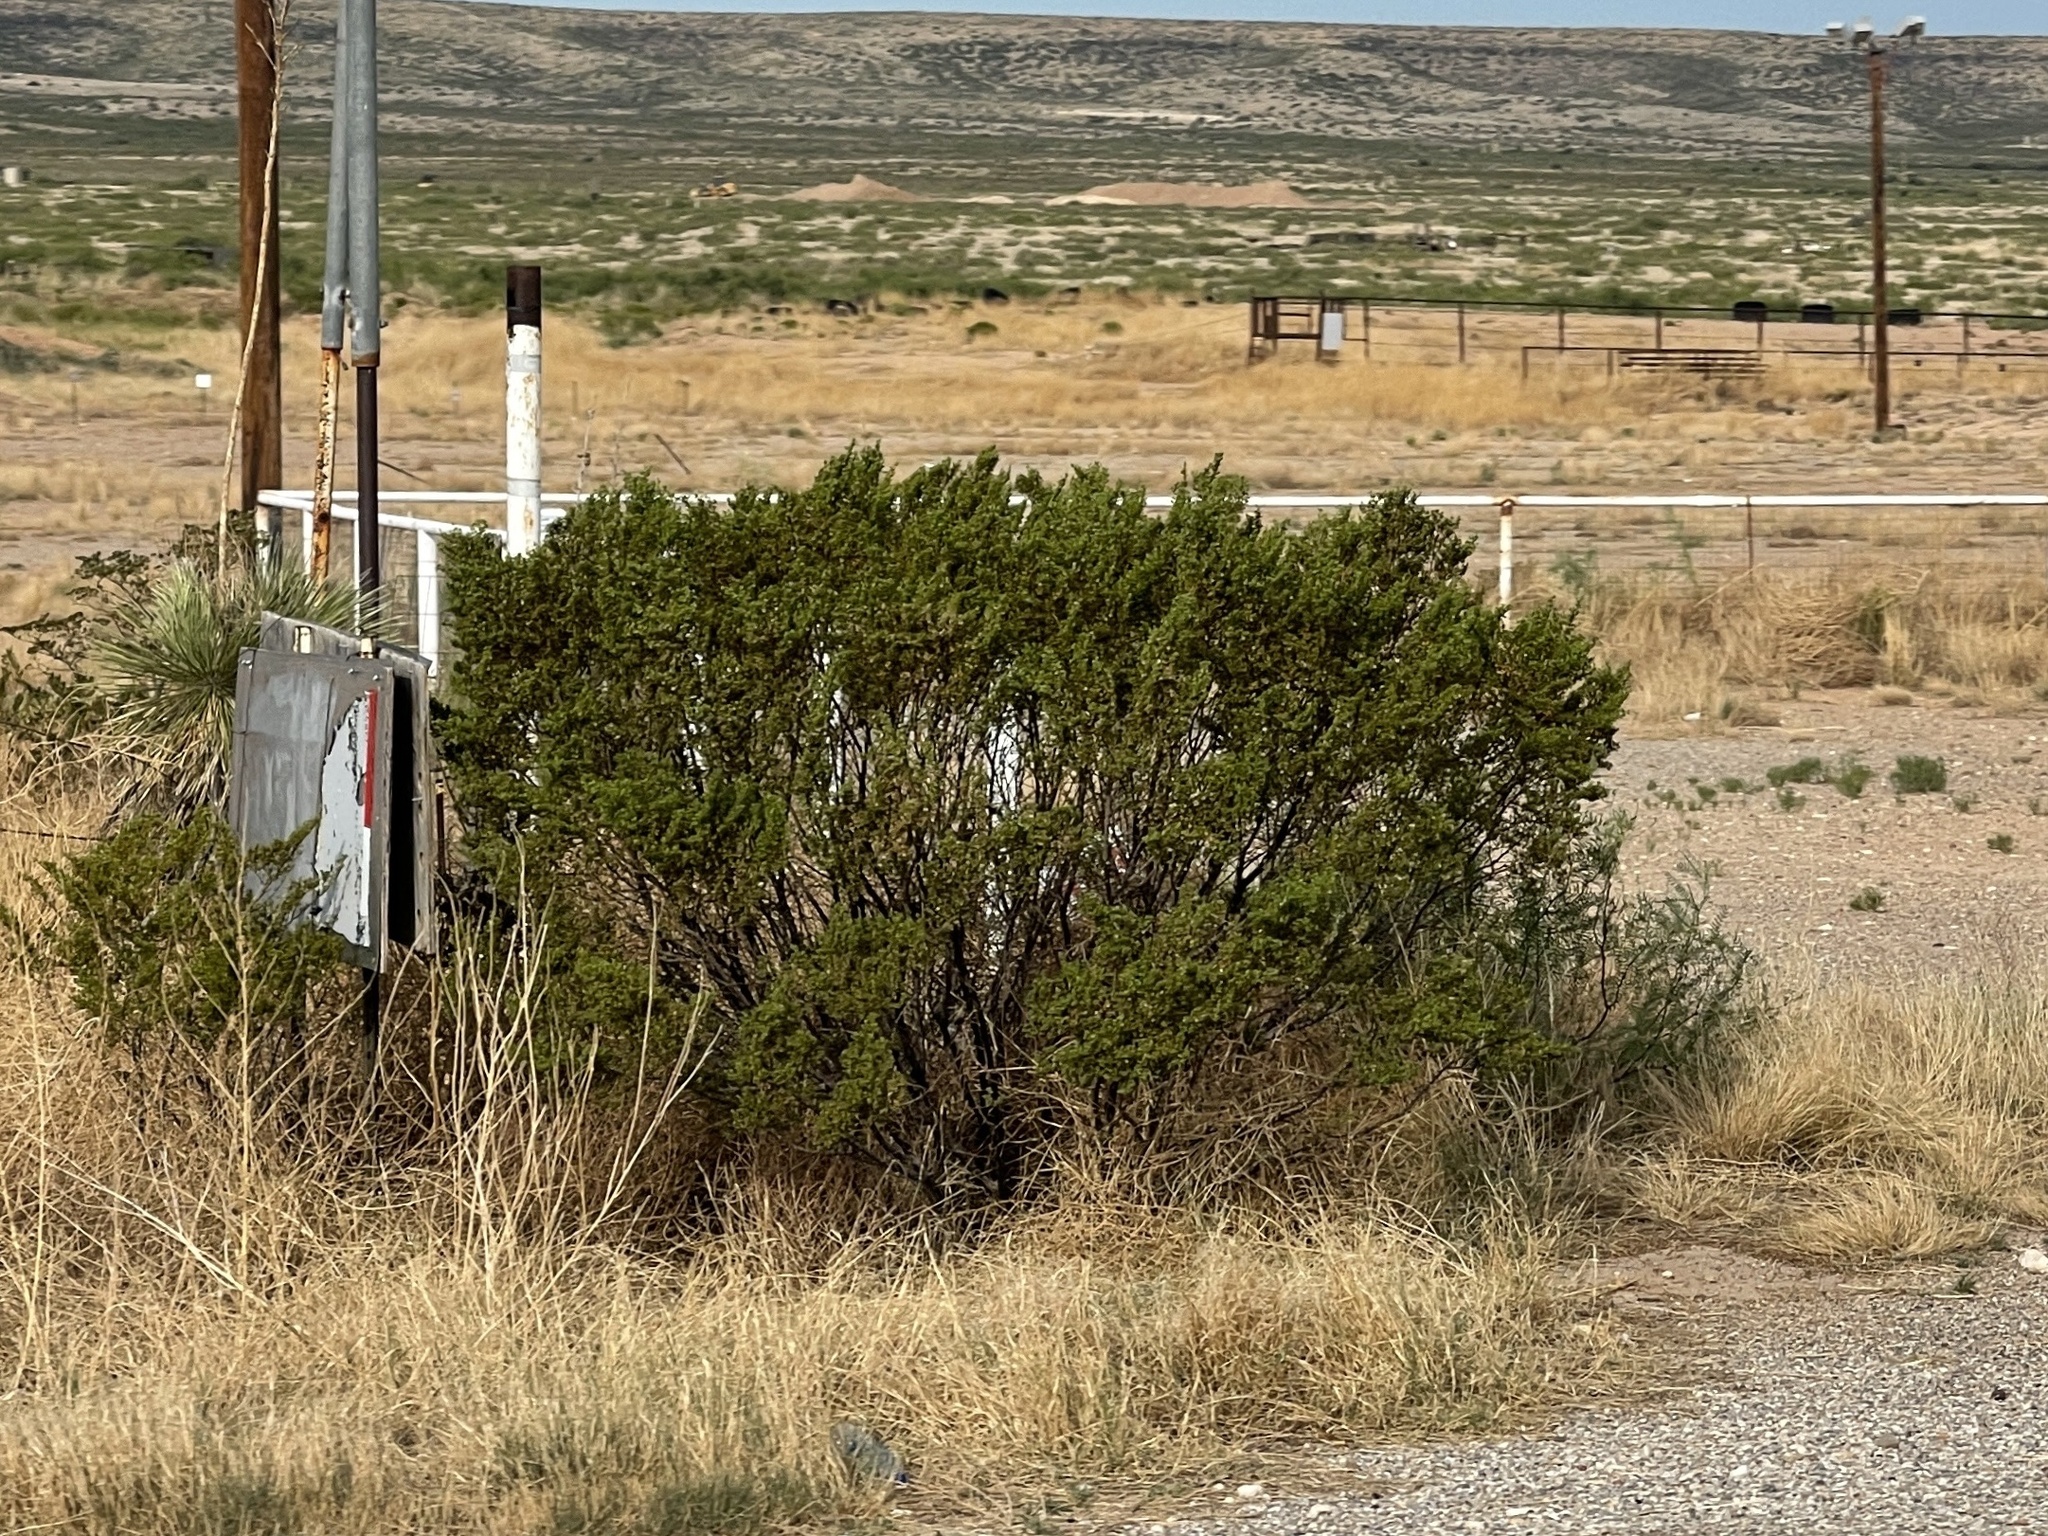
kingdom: Plantae
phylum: Tracheophyta
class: Magnoliopsida
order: Zygophyllales
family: Zygophyllaceae
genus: Larrea
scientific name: Larrea tridentata
